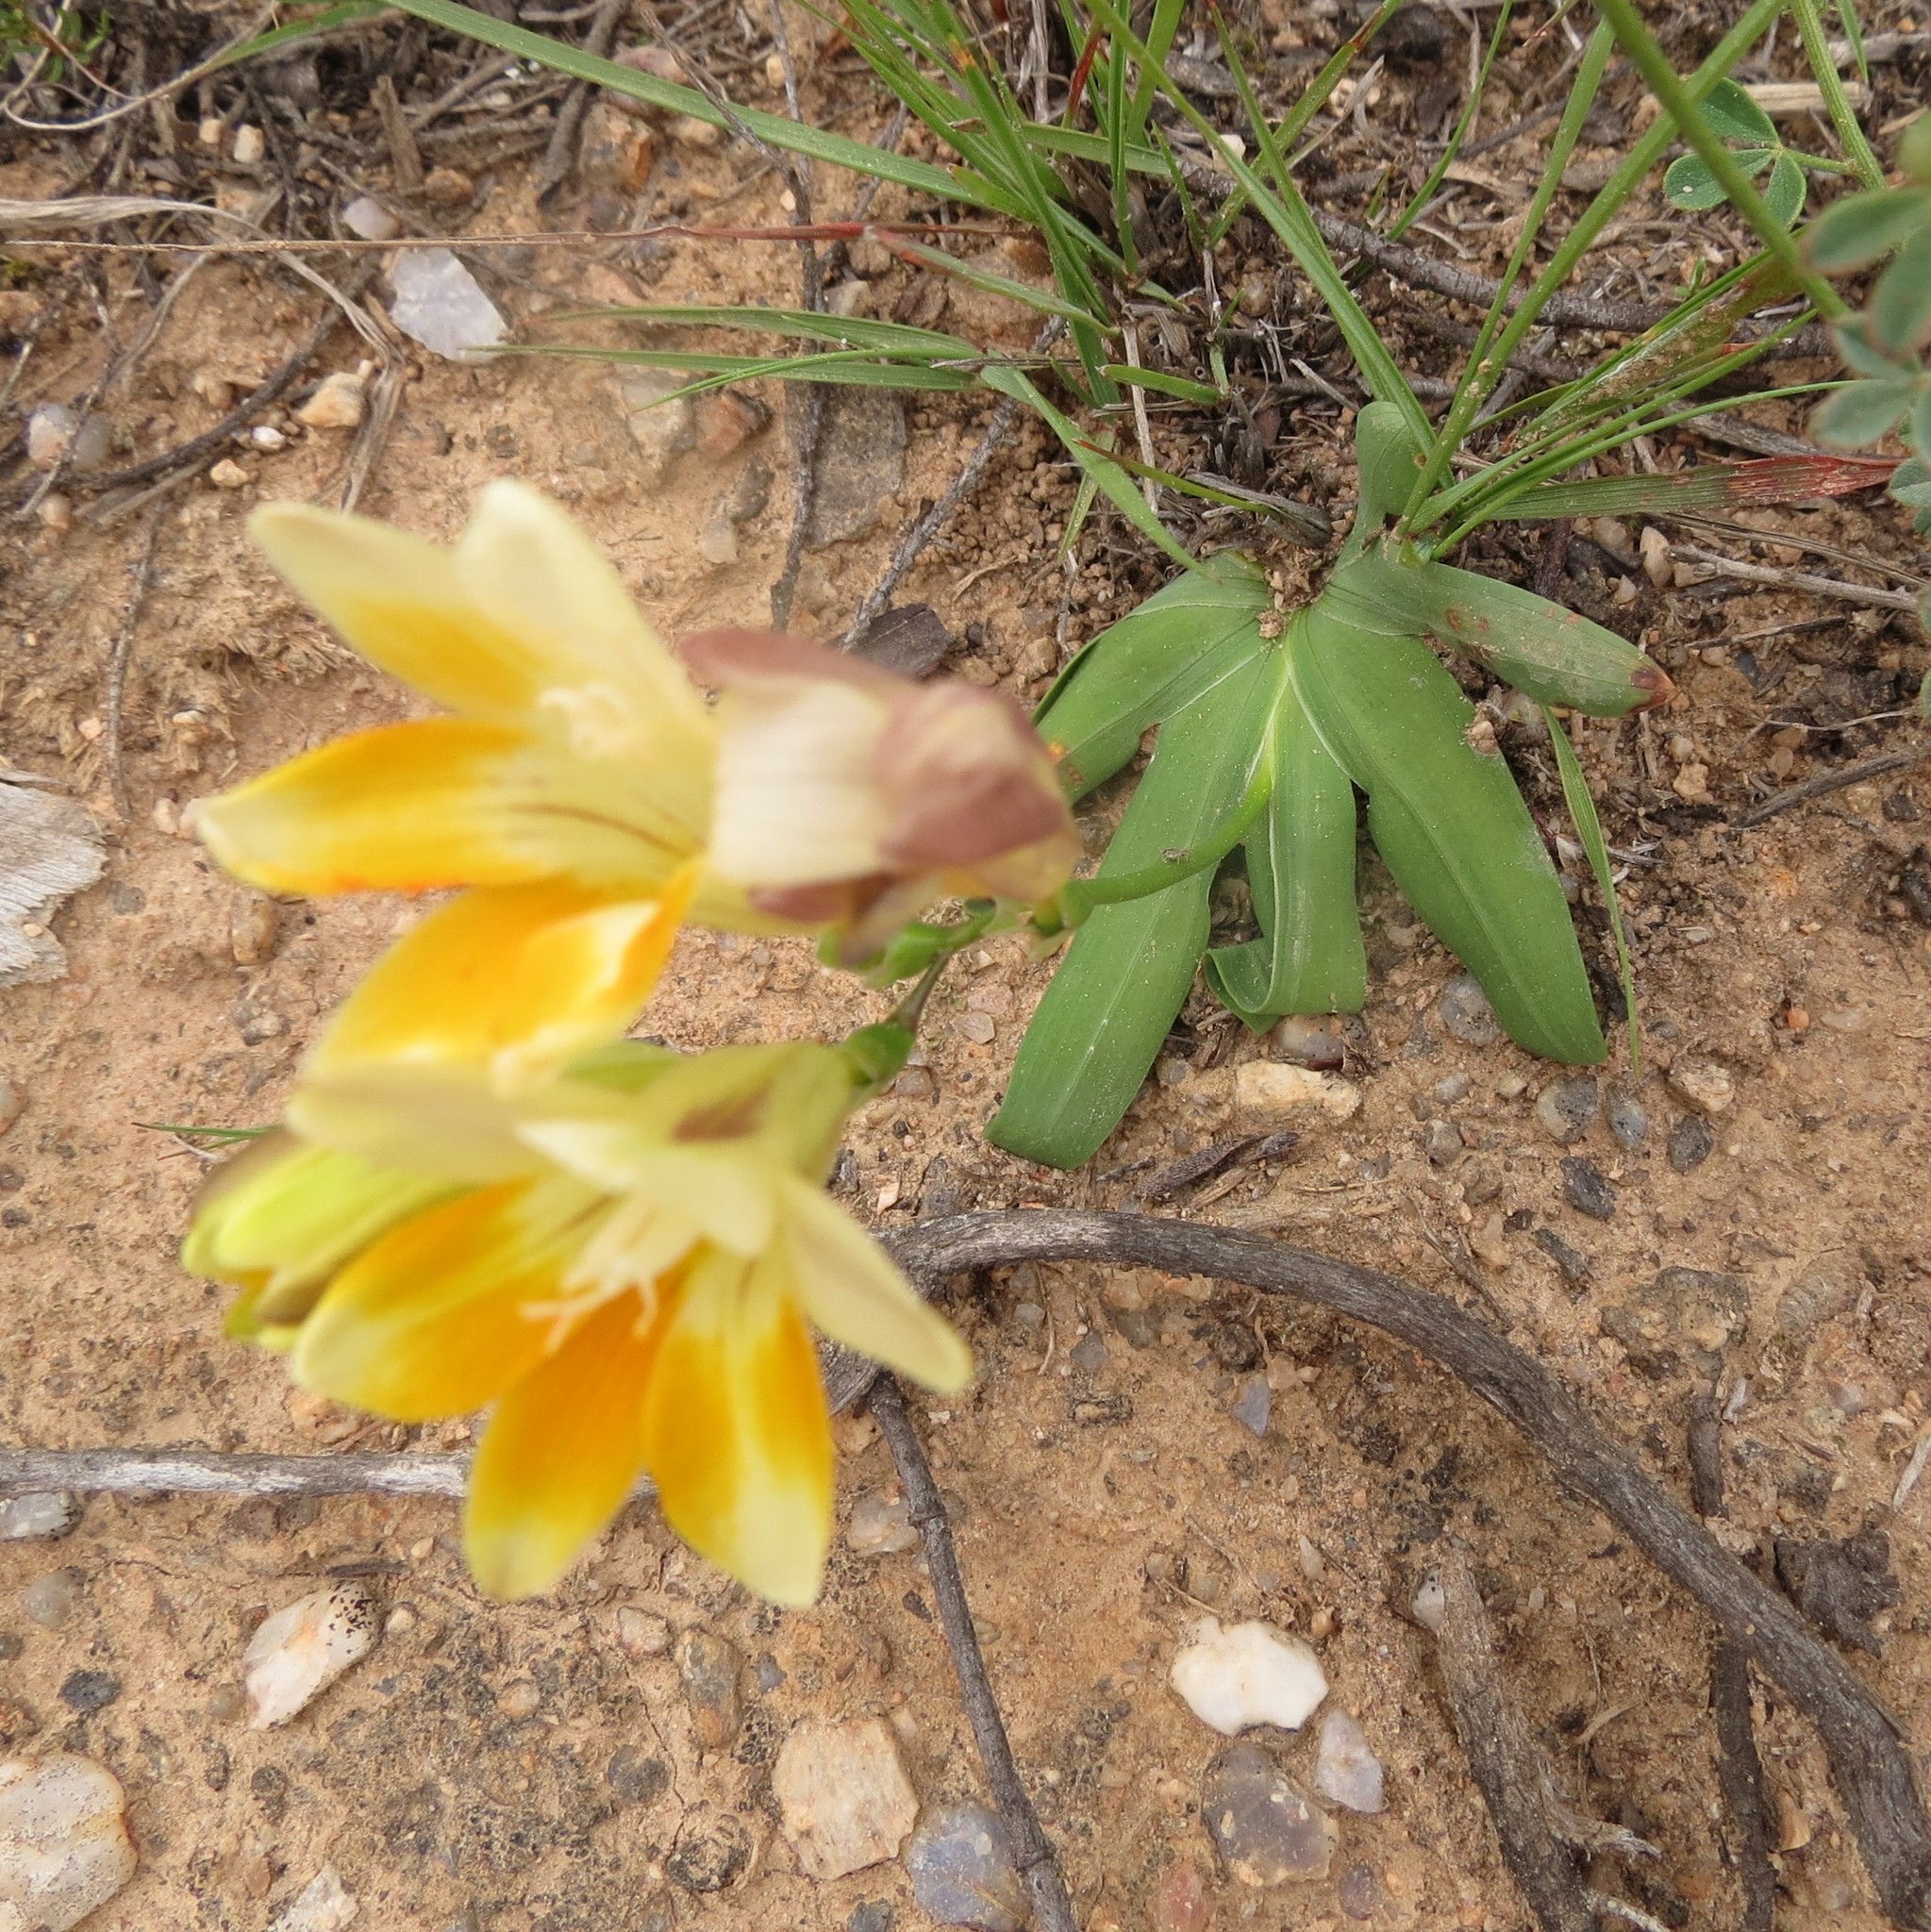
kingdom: Plantae
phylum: Tracheophyta
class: Liliopsida
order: Asparagales
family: Iridaceae
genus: Freesia
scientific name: Freesia fergusoniae
